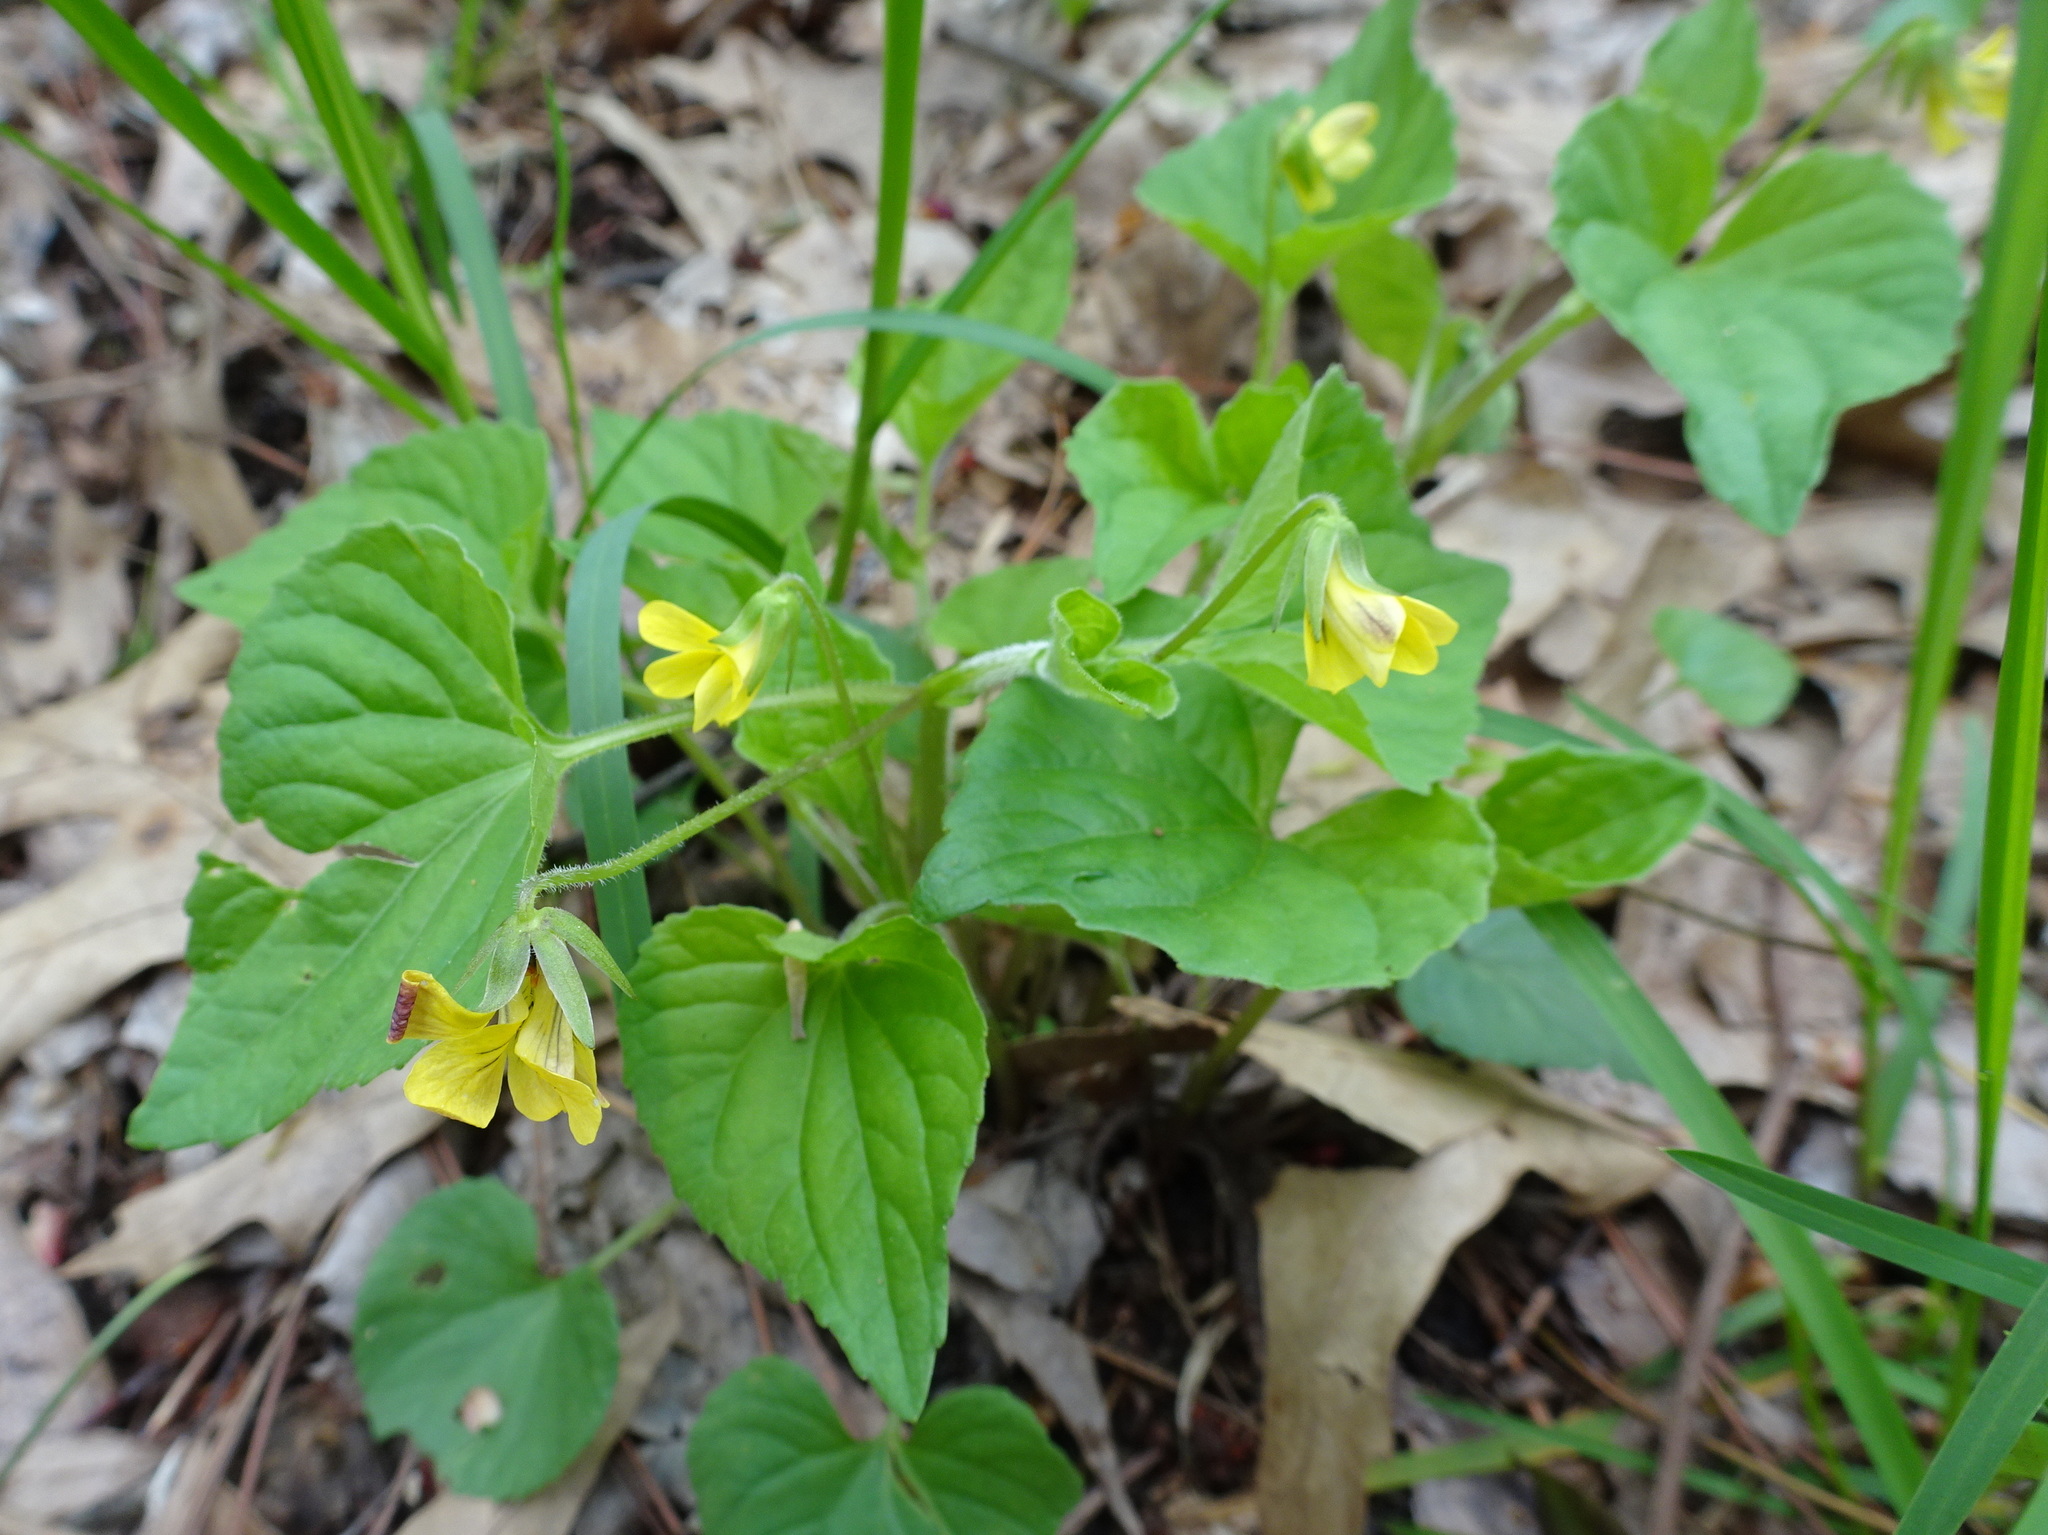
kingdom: Plantae
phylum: Tracheophyta
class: Magnoliopsida
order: Malpighiales
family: Violaceae
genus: Viola
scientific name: Viola eriocarpa
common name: Smooth yellow violet
